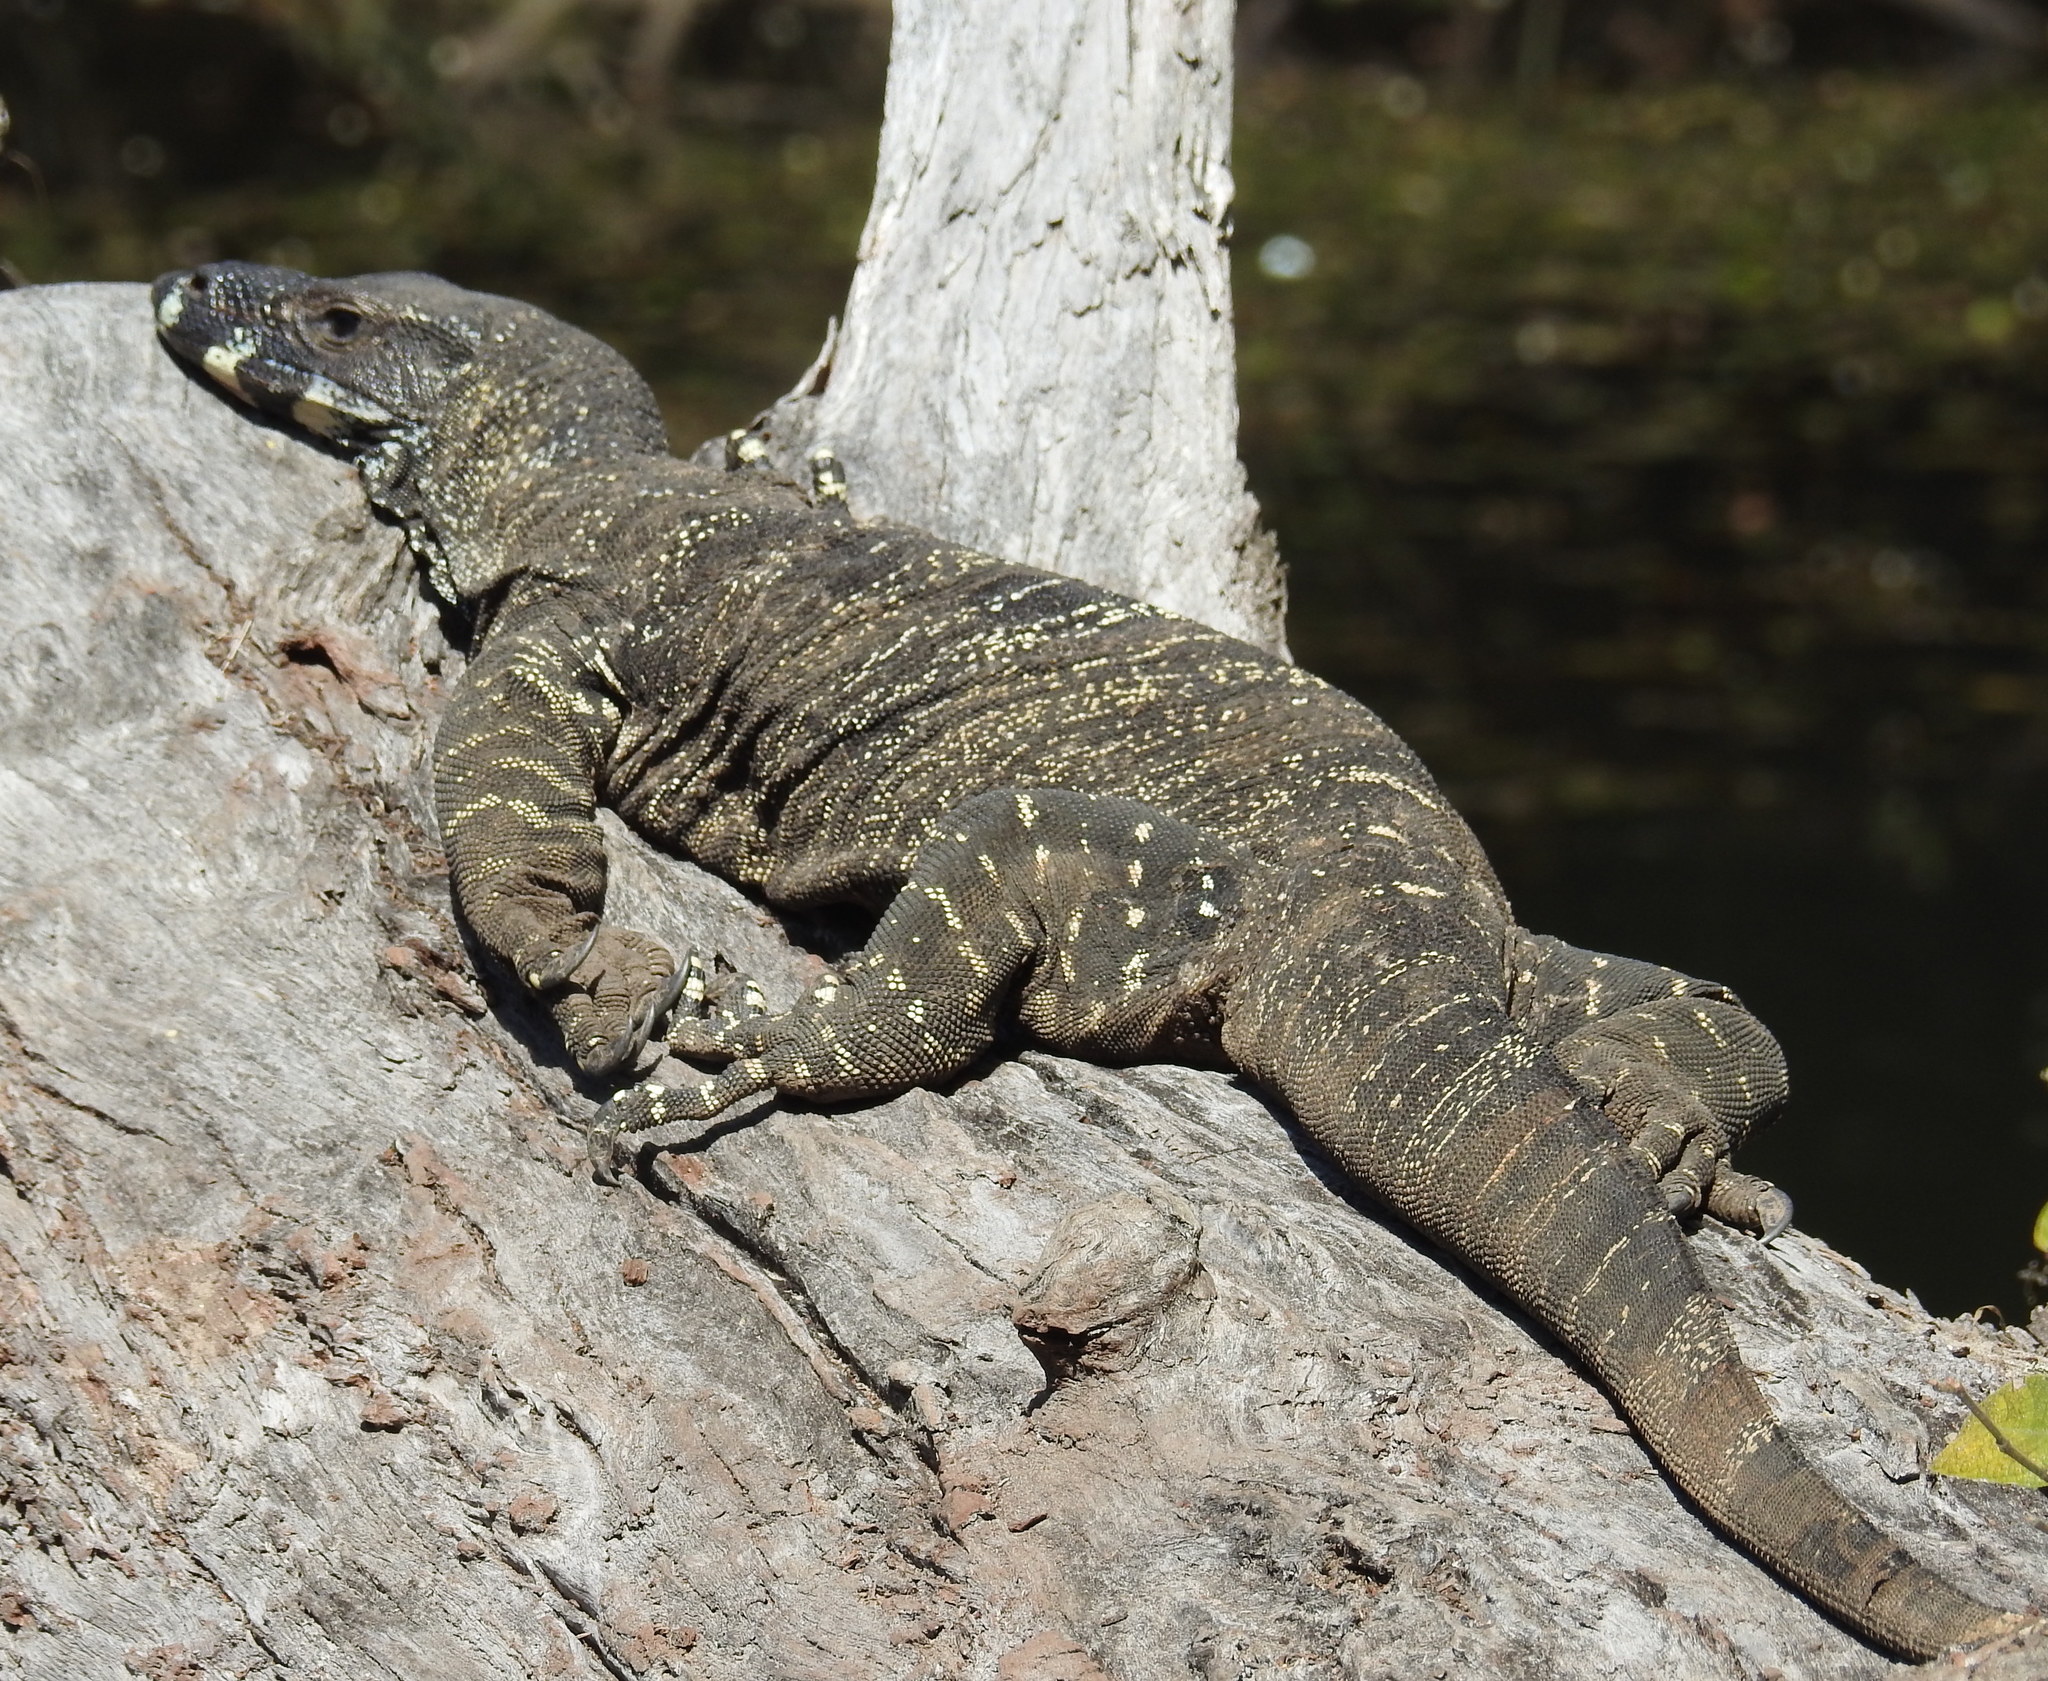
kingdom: Animalia
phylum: Chordata
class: Squamata
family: Varanidae
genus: Varanus
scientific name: Varanus varius
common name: Lace monitor
